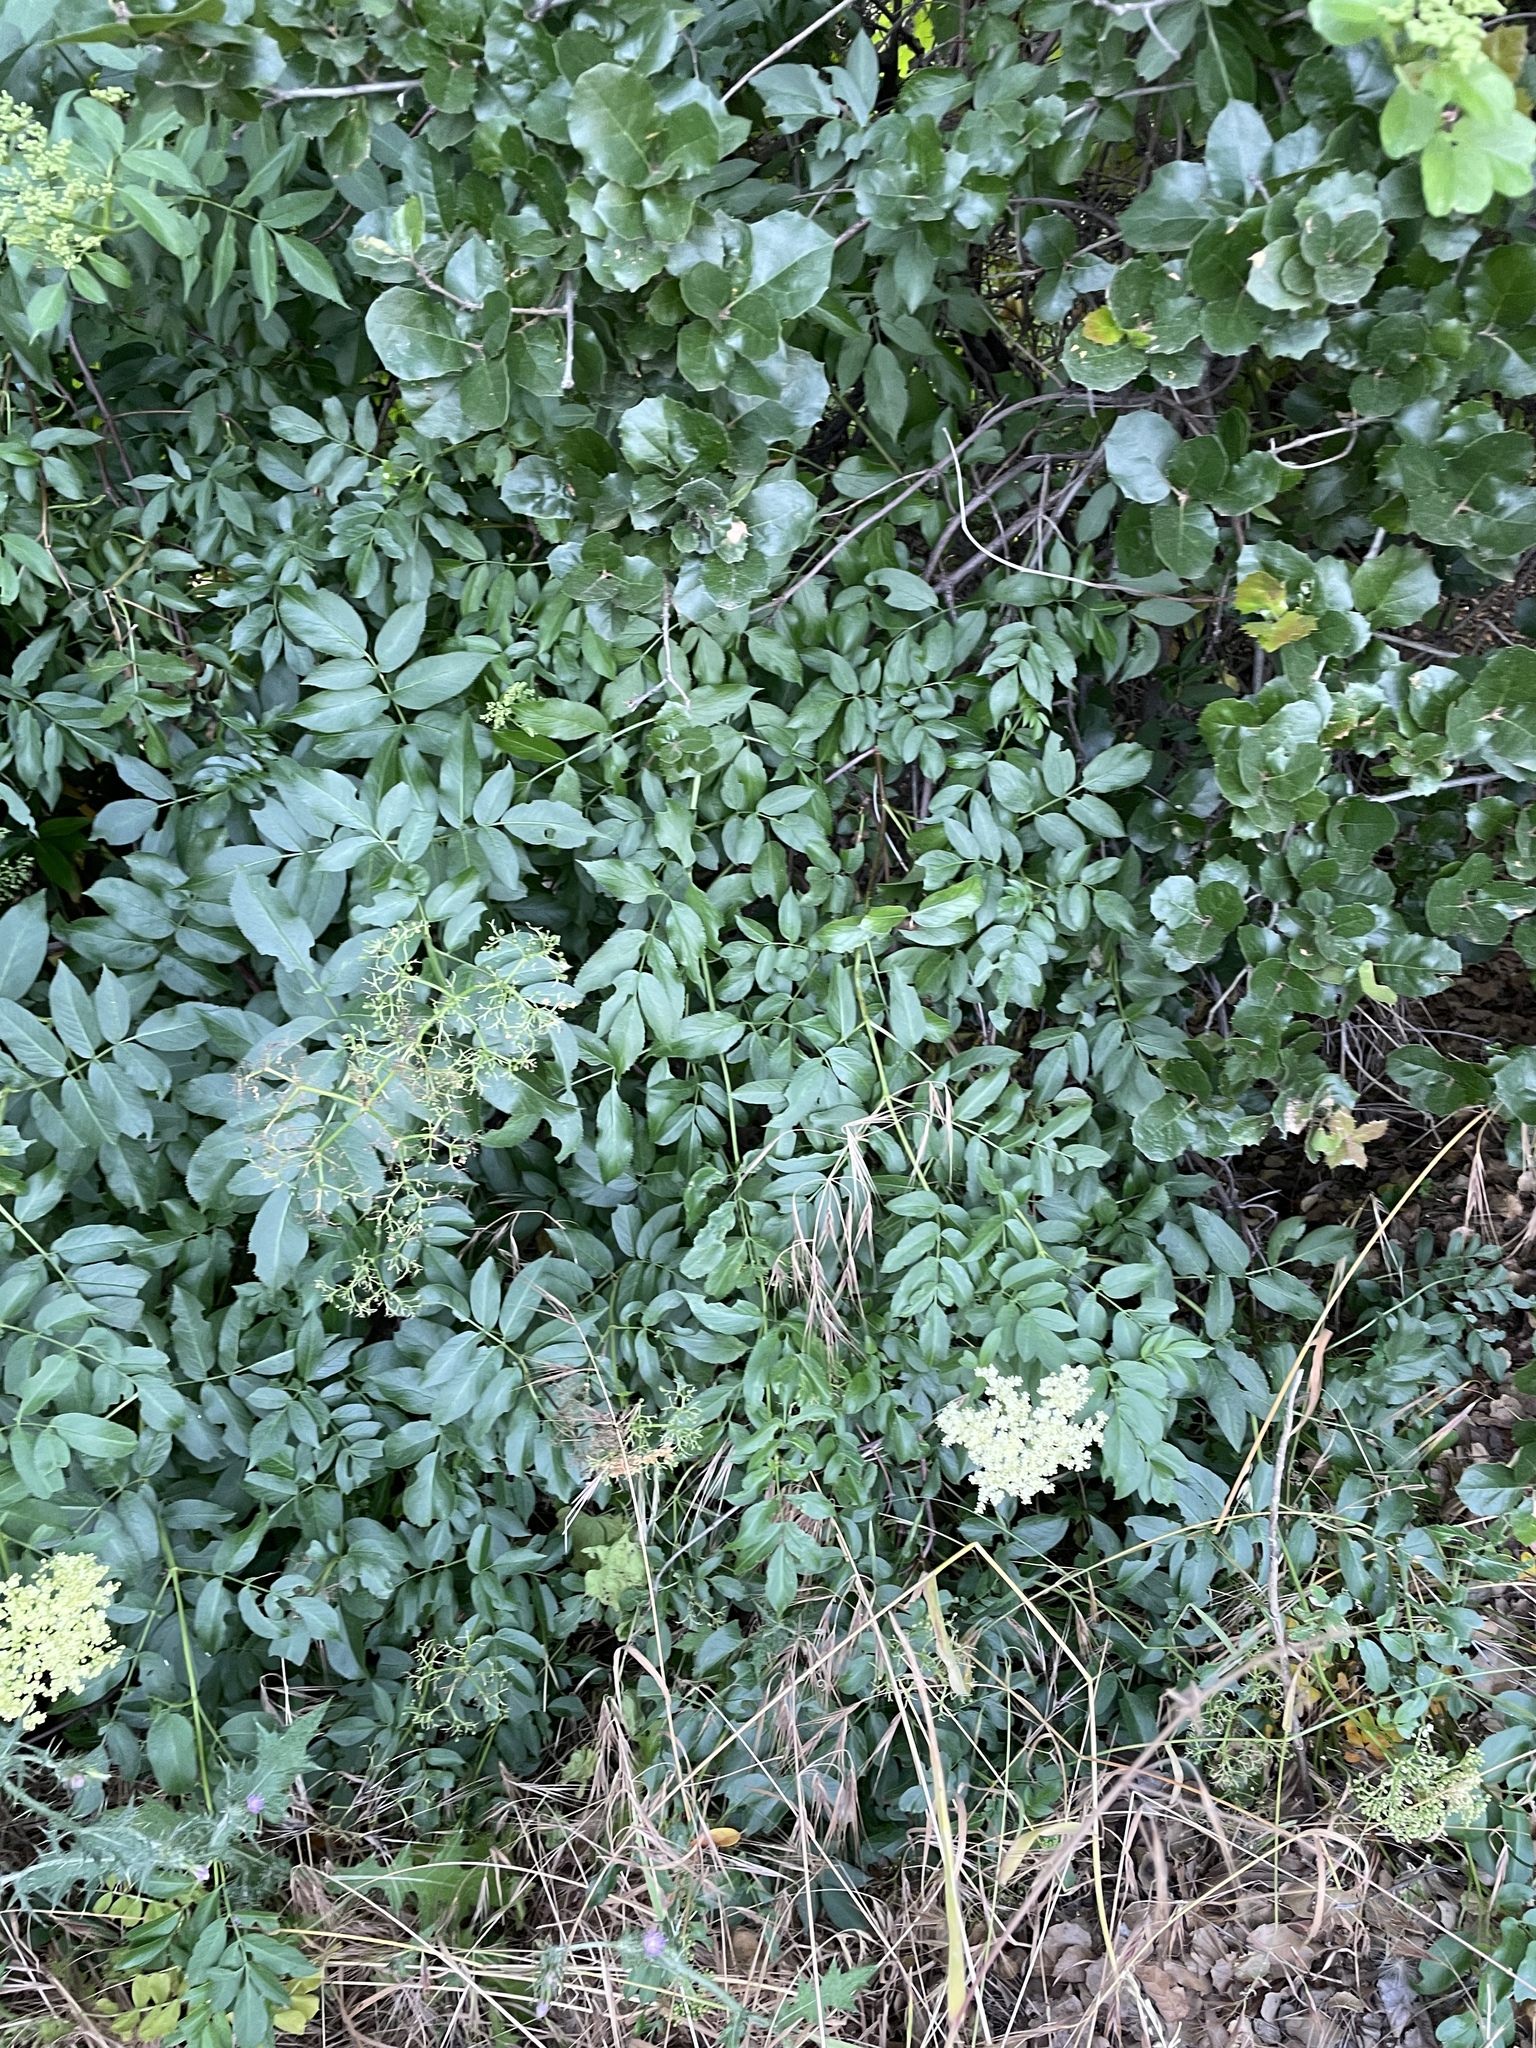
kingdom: Plantae
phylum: Tracheophyta
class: Magnoliopsida
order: Dipsacales
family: Viburnaceae
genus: Sambucus
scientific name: Sambucus cerulea
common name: Blue elder
